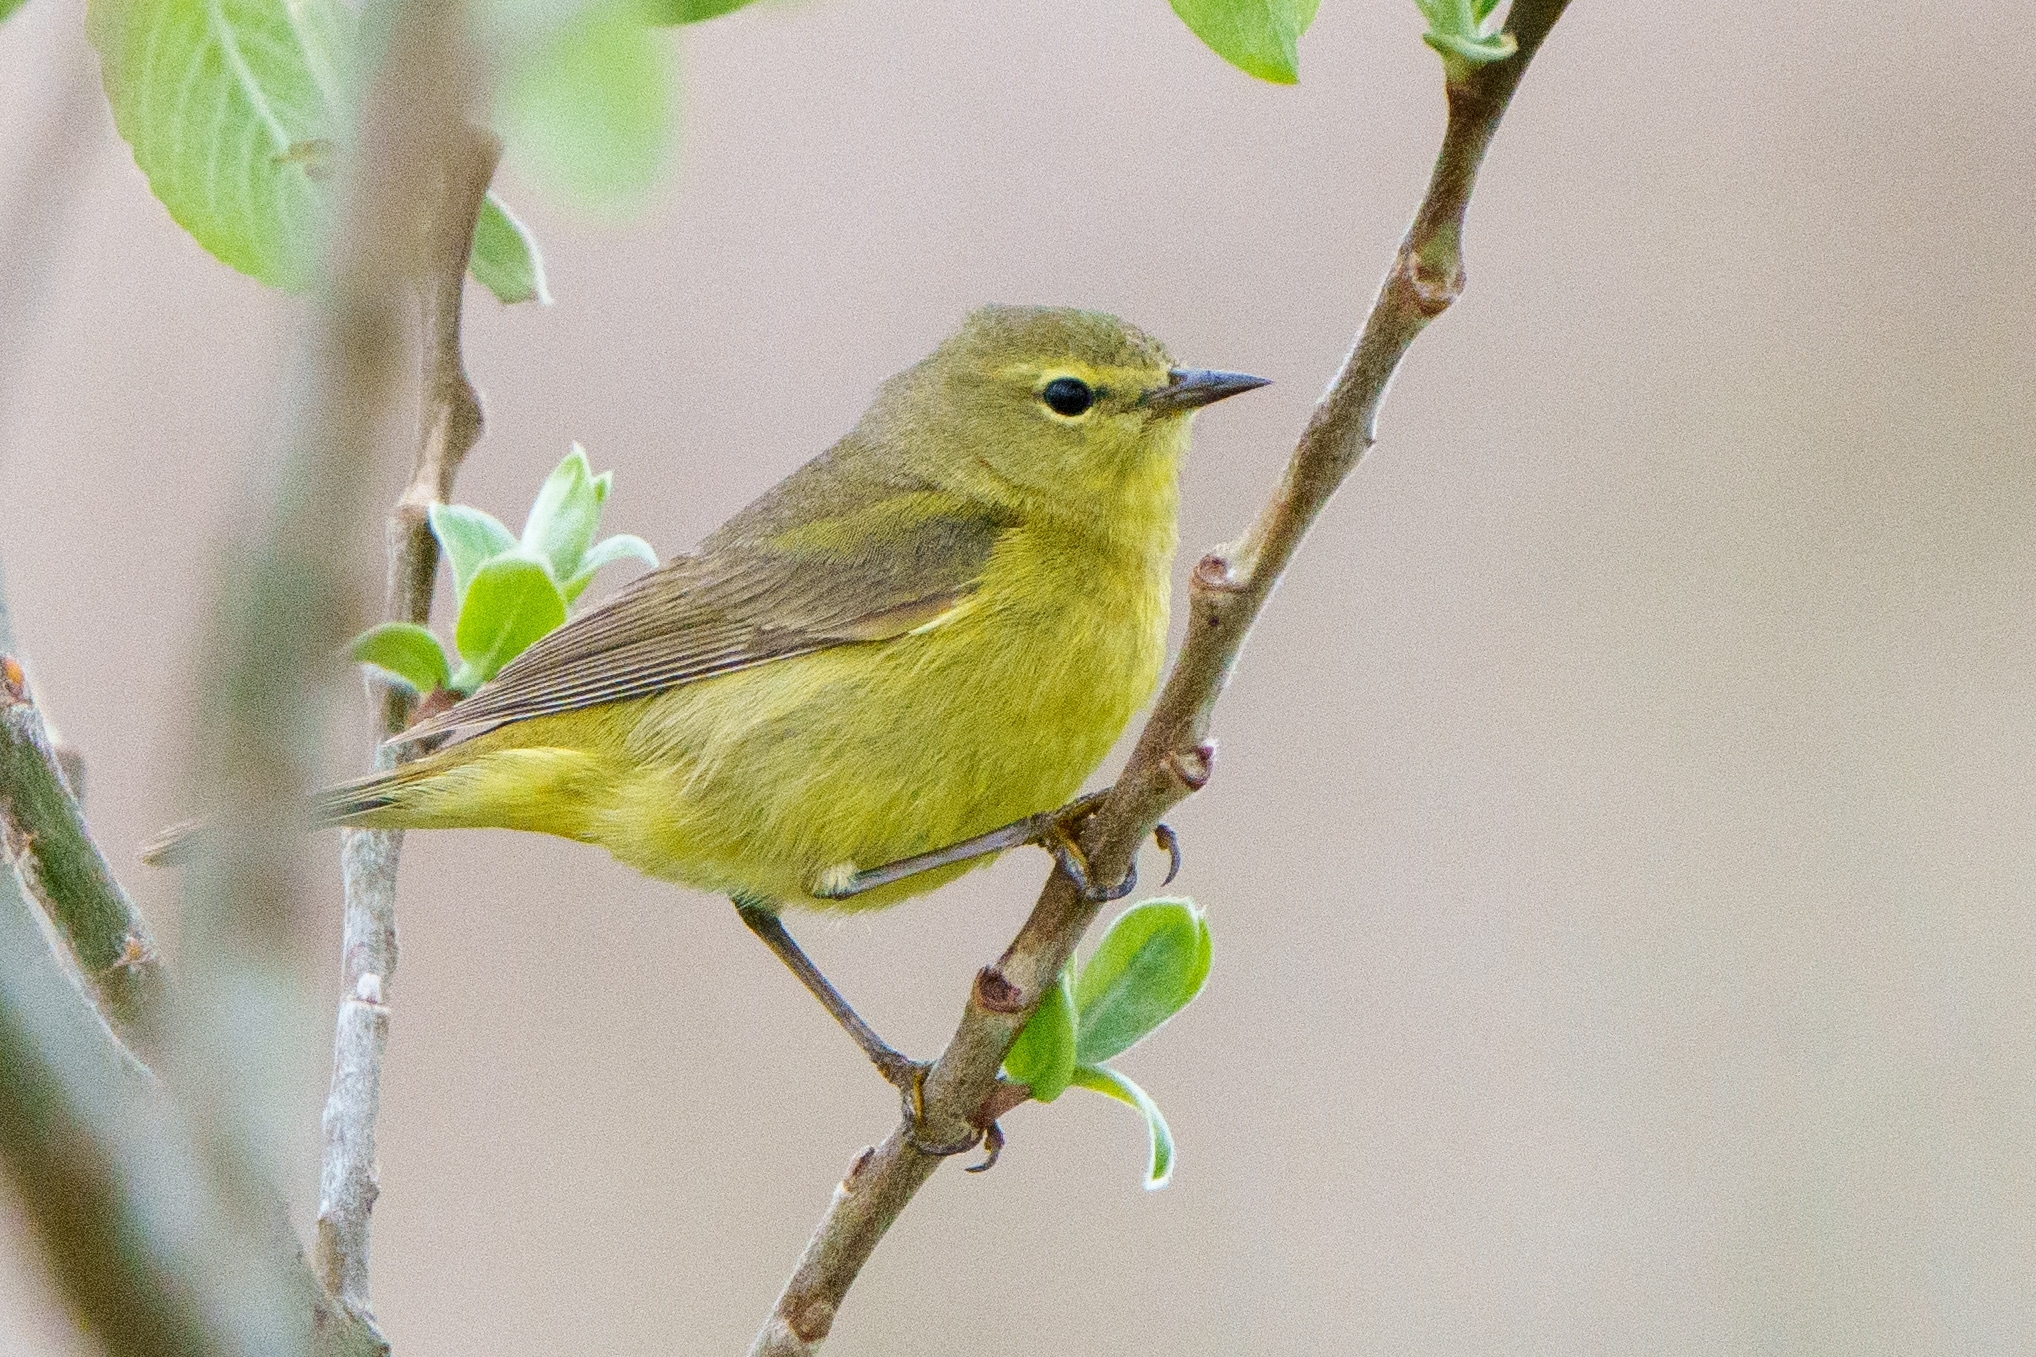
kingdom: Animalia
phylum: Chordata
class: Aves
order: Passeriformes
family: Parulidae
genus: Leiothlypis
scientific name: Leiothlypis celata
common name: Orange-crowned warbler
